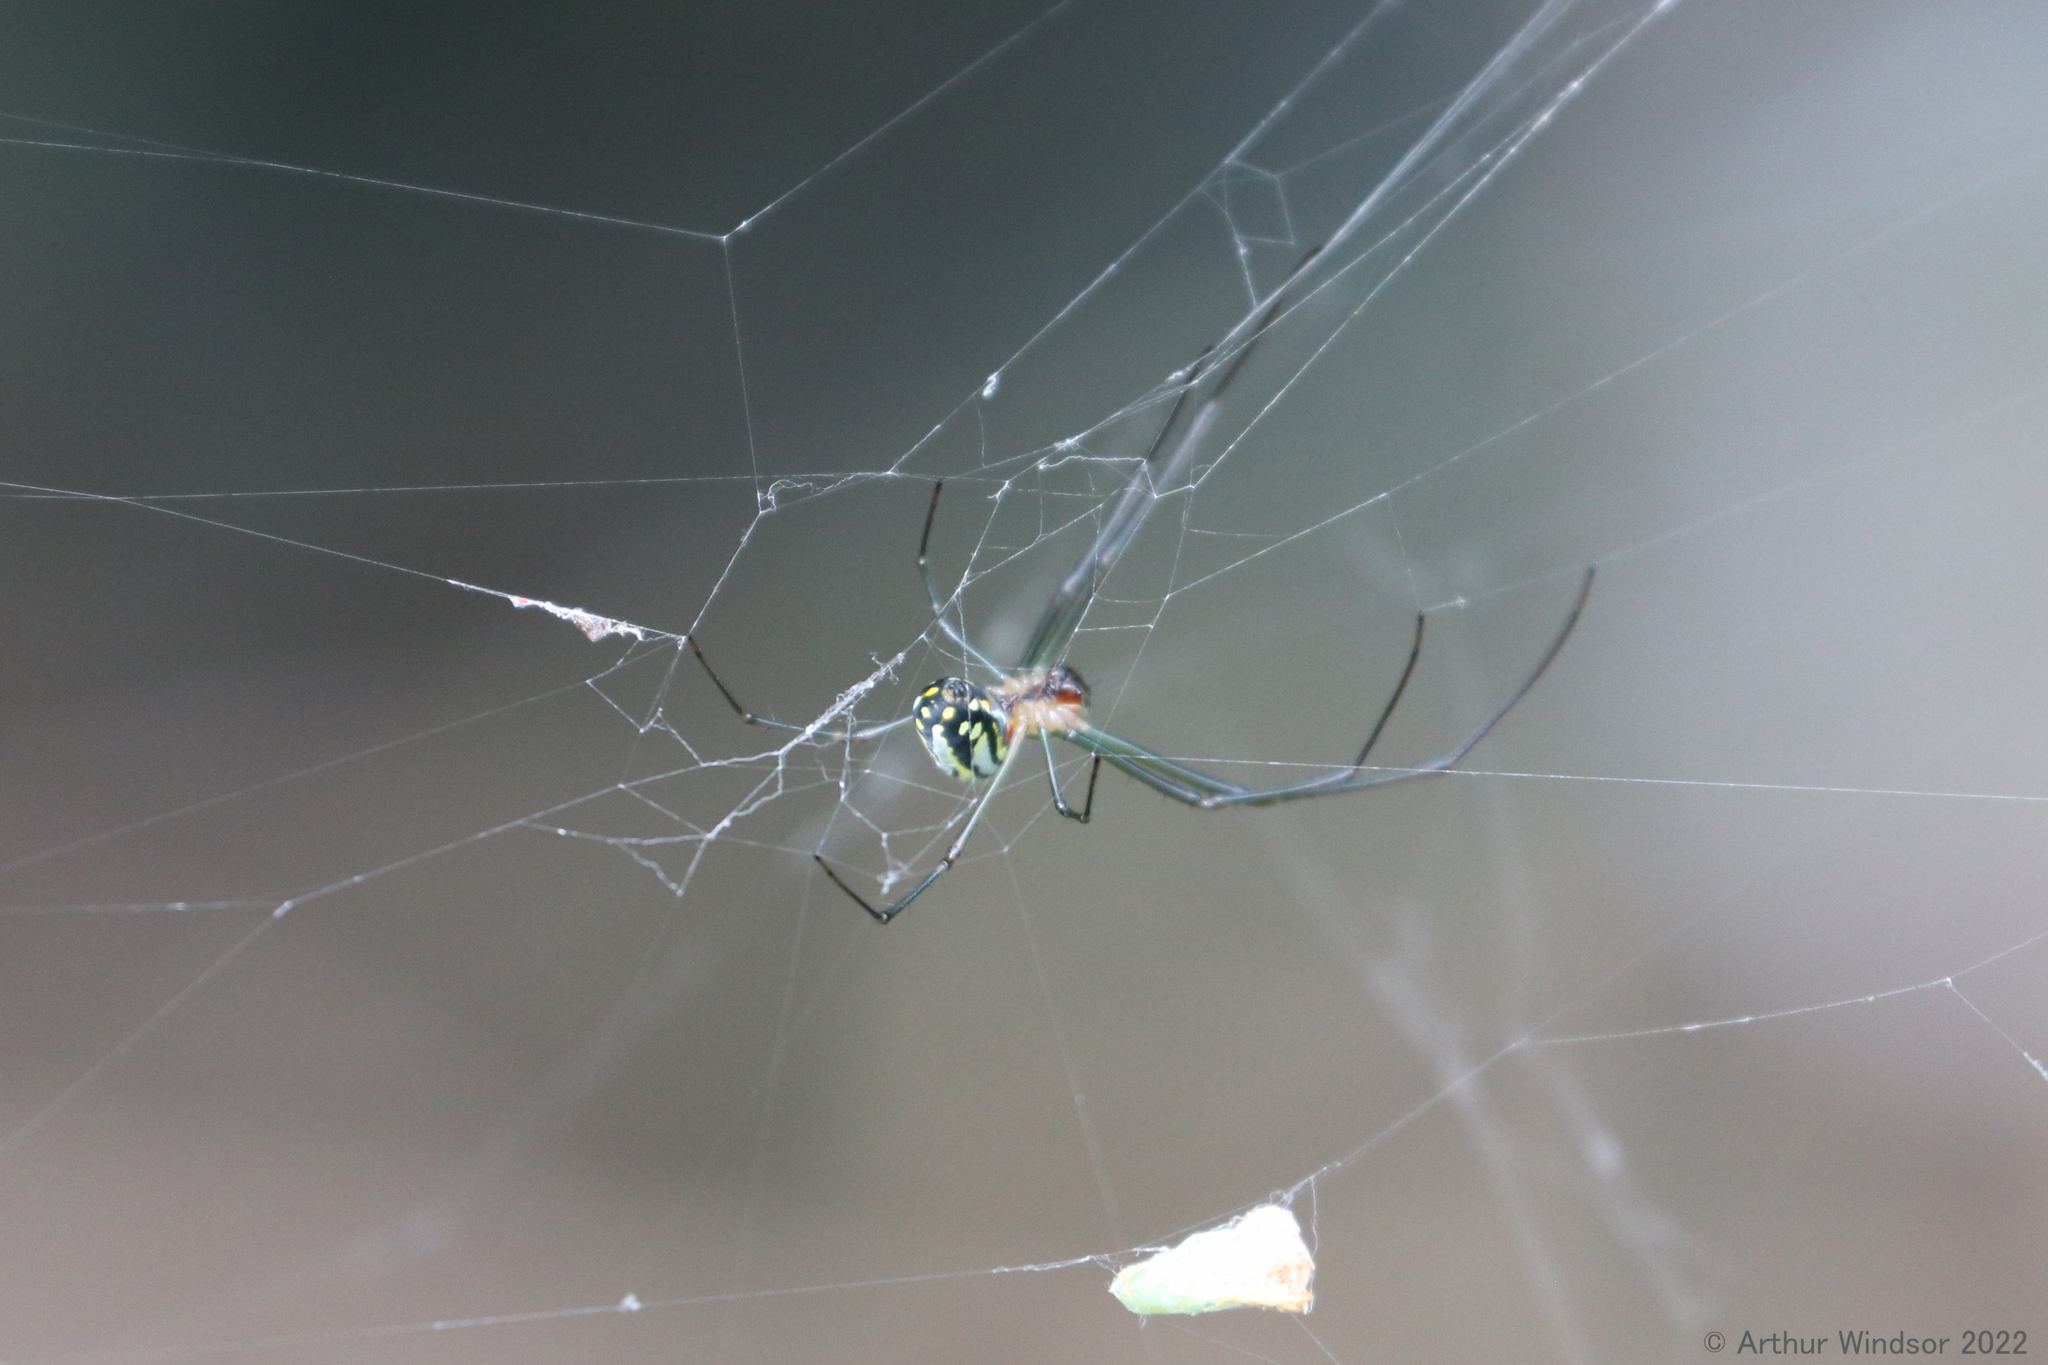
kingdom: Animalia
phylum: Arthropoda
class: Arachnida
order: Araneae
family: Tetragnathidae
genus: Leucauge
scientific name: Leucauge argyra
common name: Longjawed orb weavers
